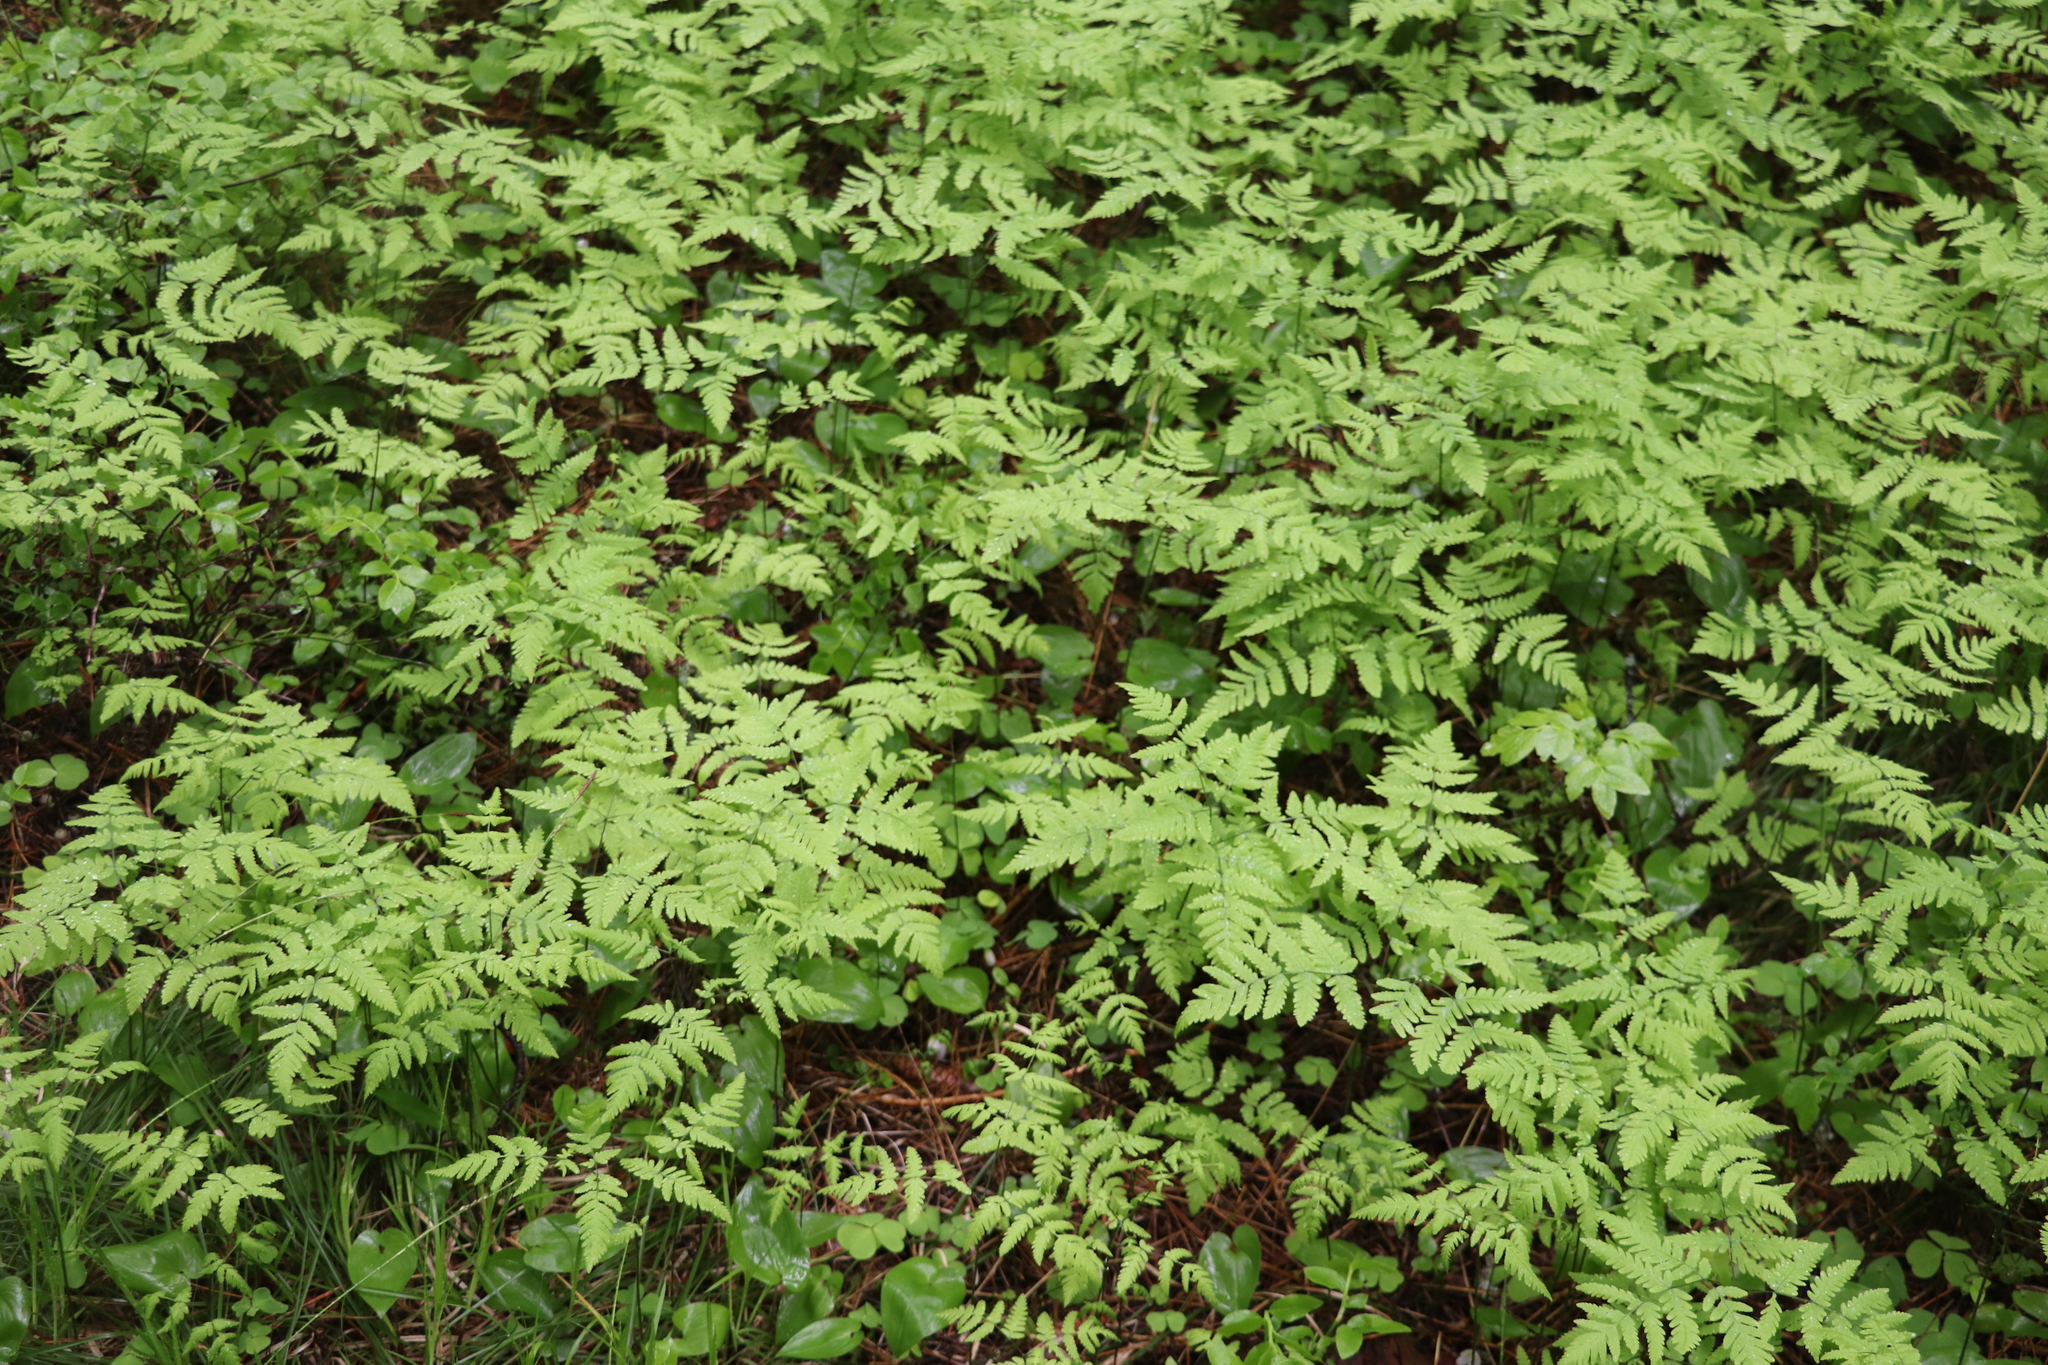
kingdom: Plantae
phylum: Tracheophyta
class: Polypodiopsida
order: Polypodiales
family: Cystopteridaceae
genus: Gymnocarpium
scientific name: Gymnocarpium dryopteris
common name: Oak fern
